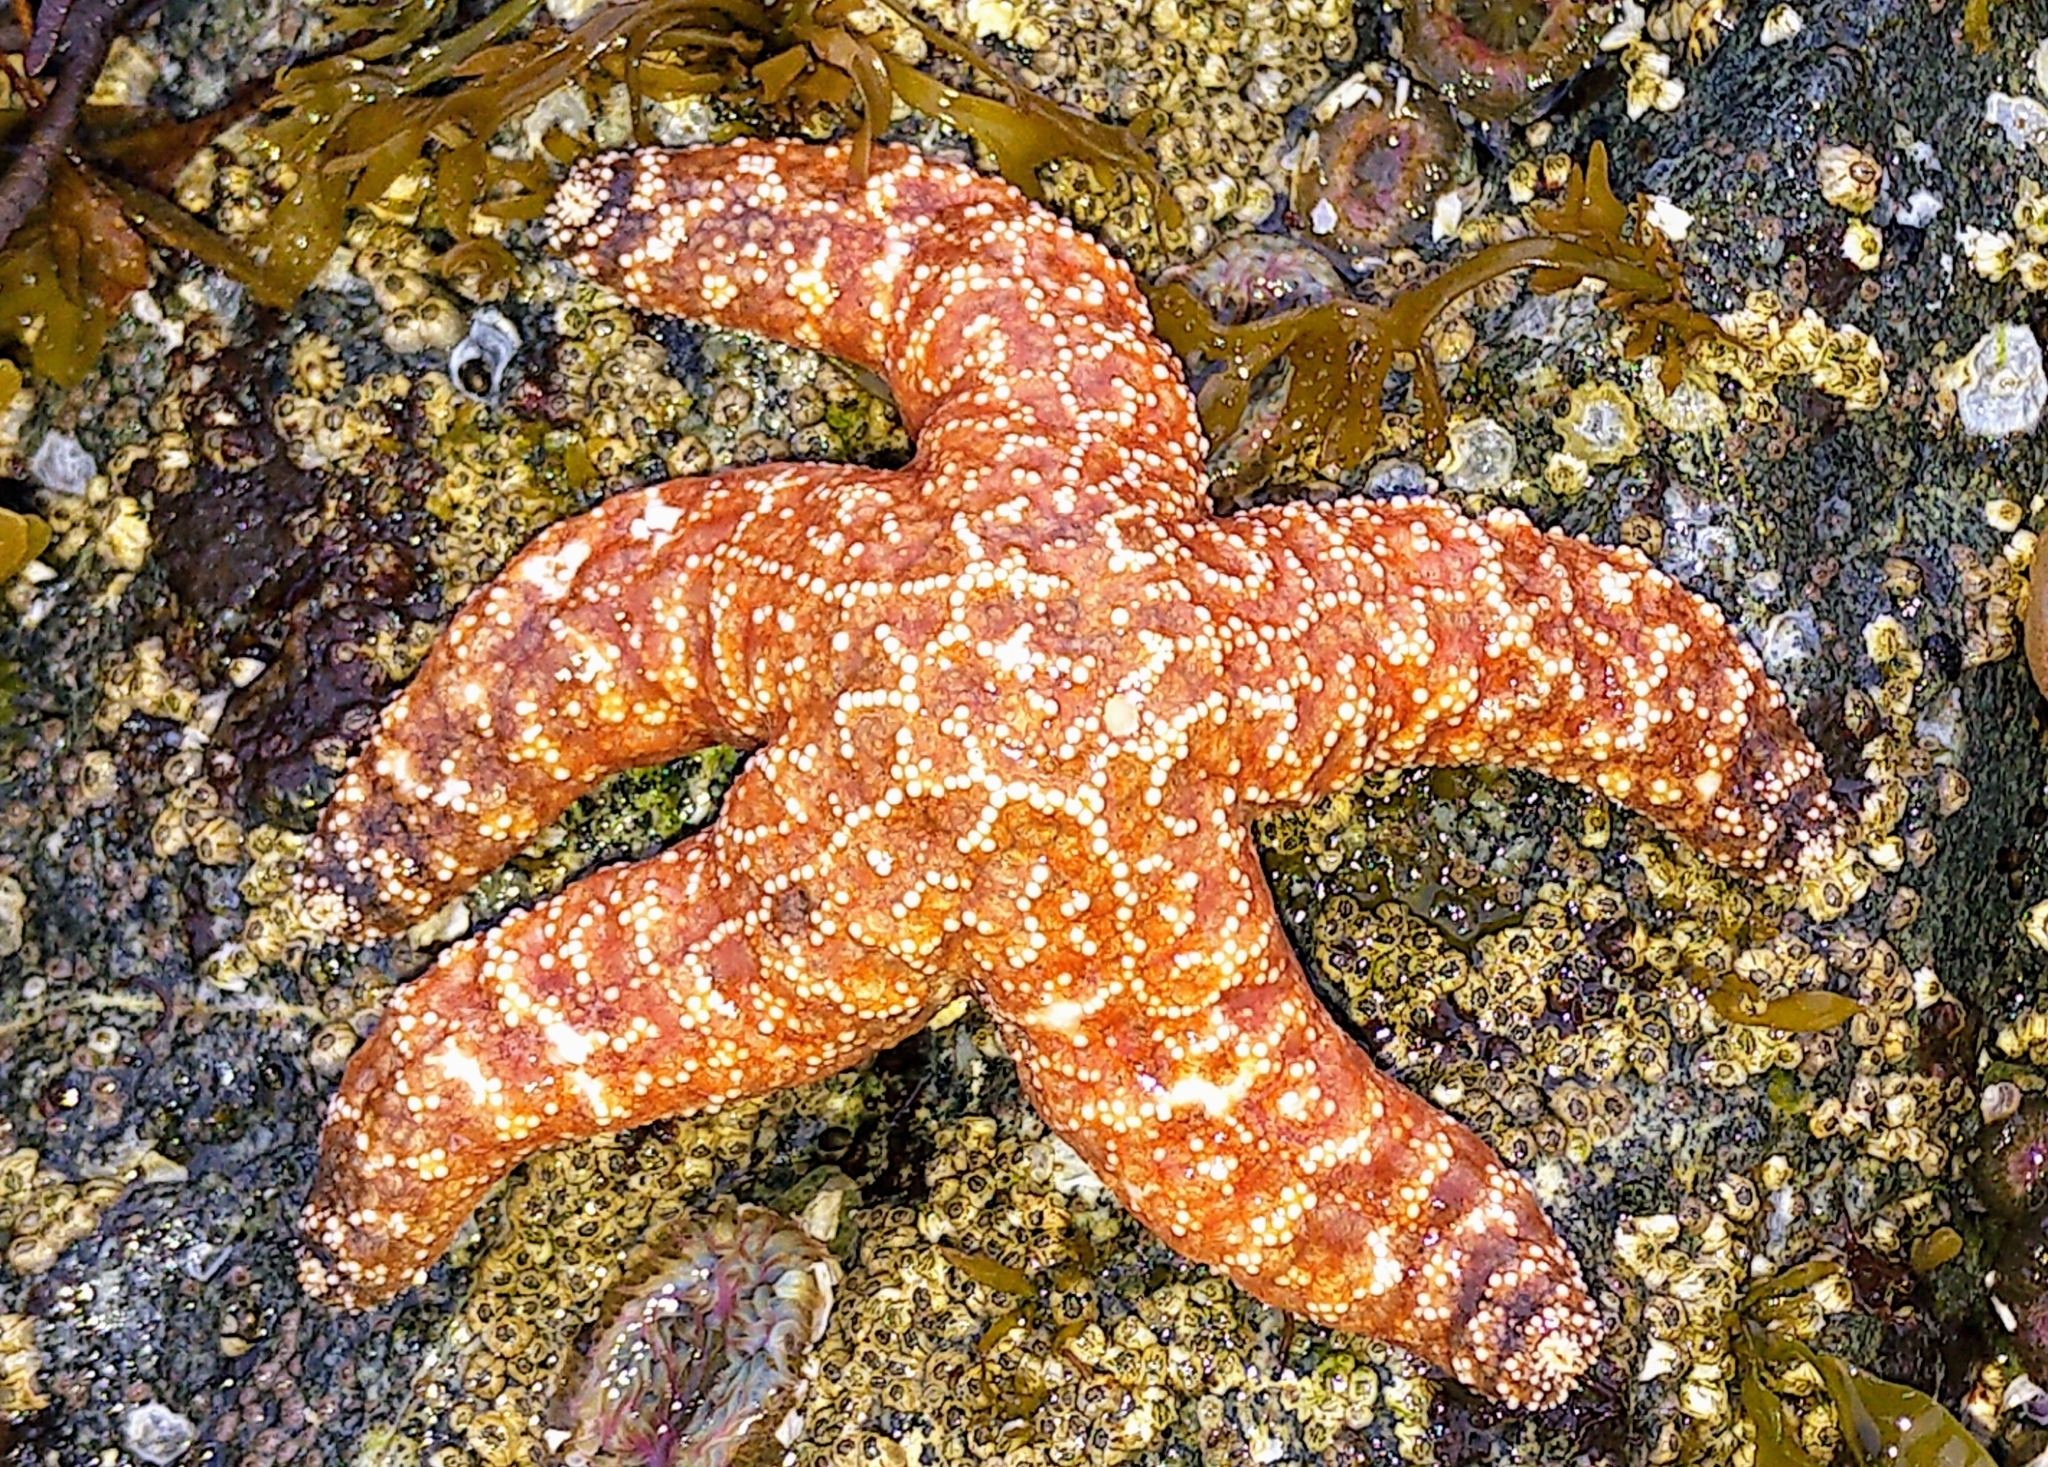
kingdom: Animalia
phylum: Echinodermata
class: Asteroidea
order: Forcipulatida
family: Asteriidae
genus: Pisaster
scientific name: Pisaster ochraceus
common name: Ochre stars
